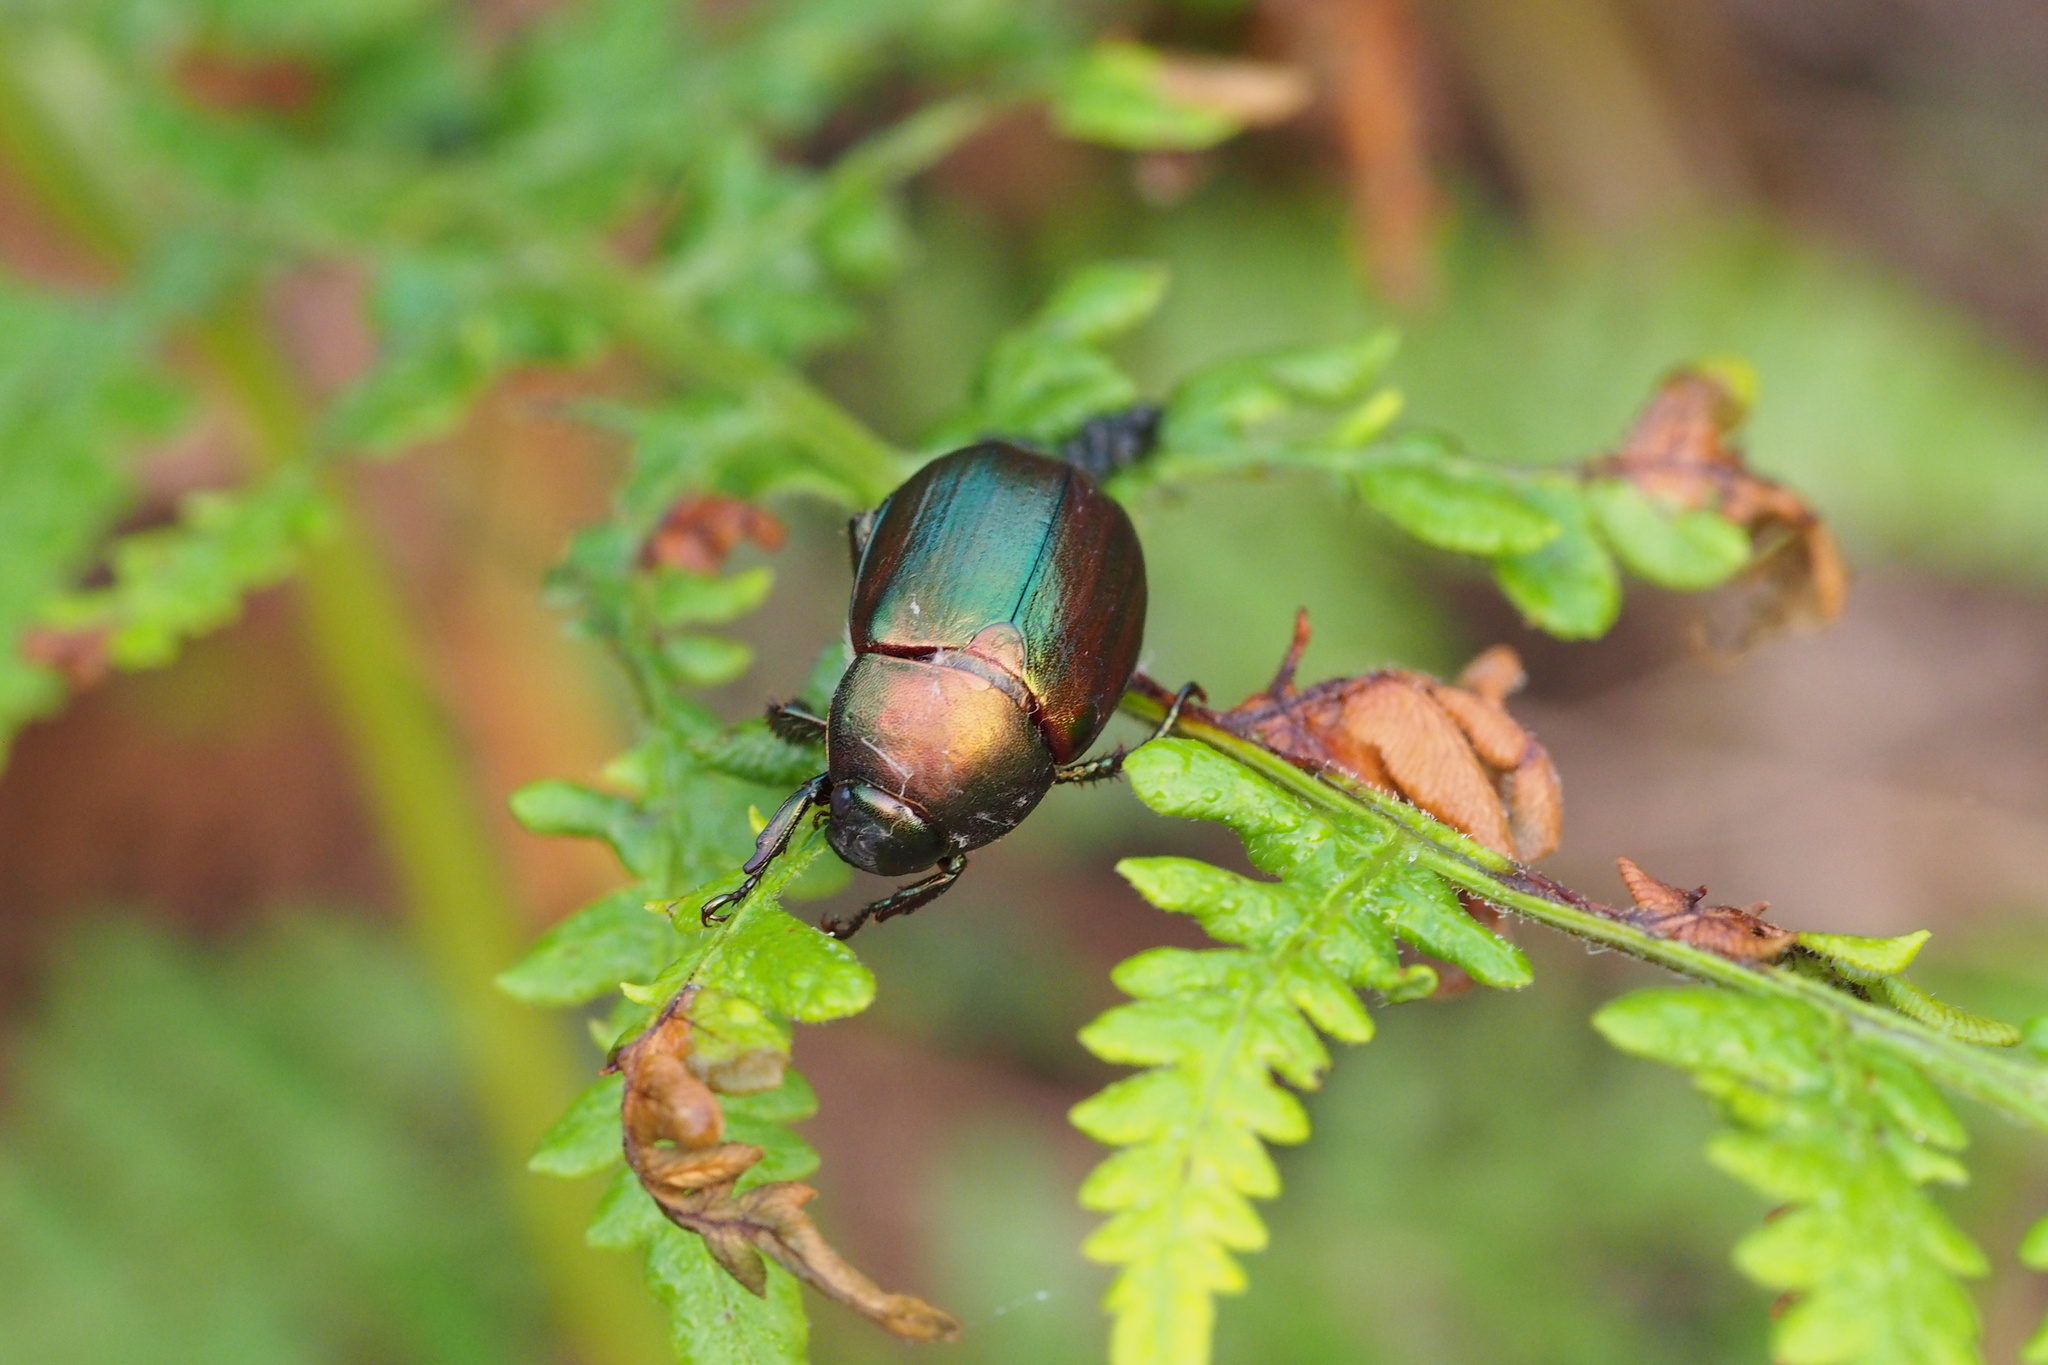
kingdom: Animalia
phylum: Arthropoda
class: Insecta
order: Coleoptera
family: Scarabaeidae
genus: Anomala
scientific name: Anomala rufocuprea
